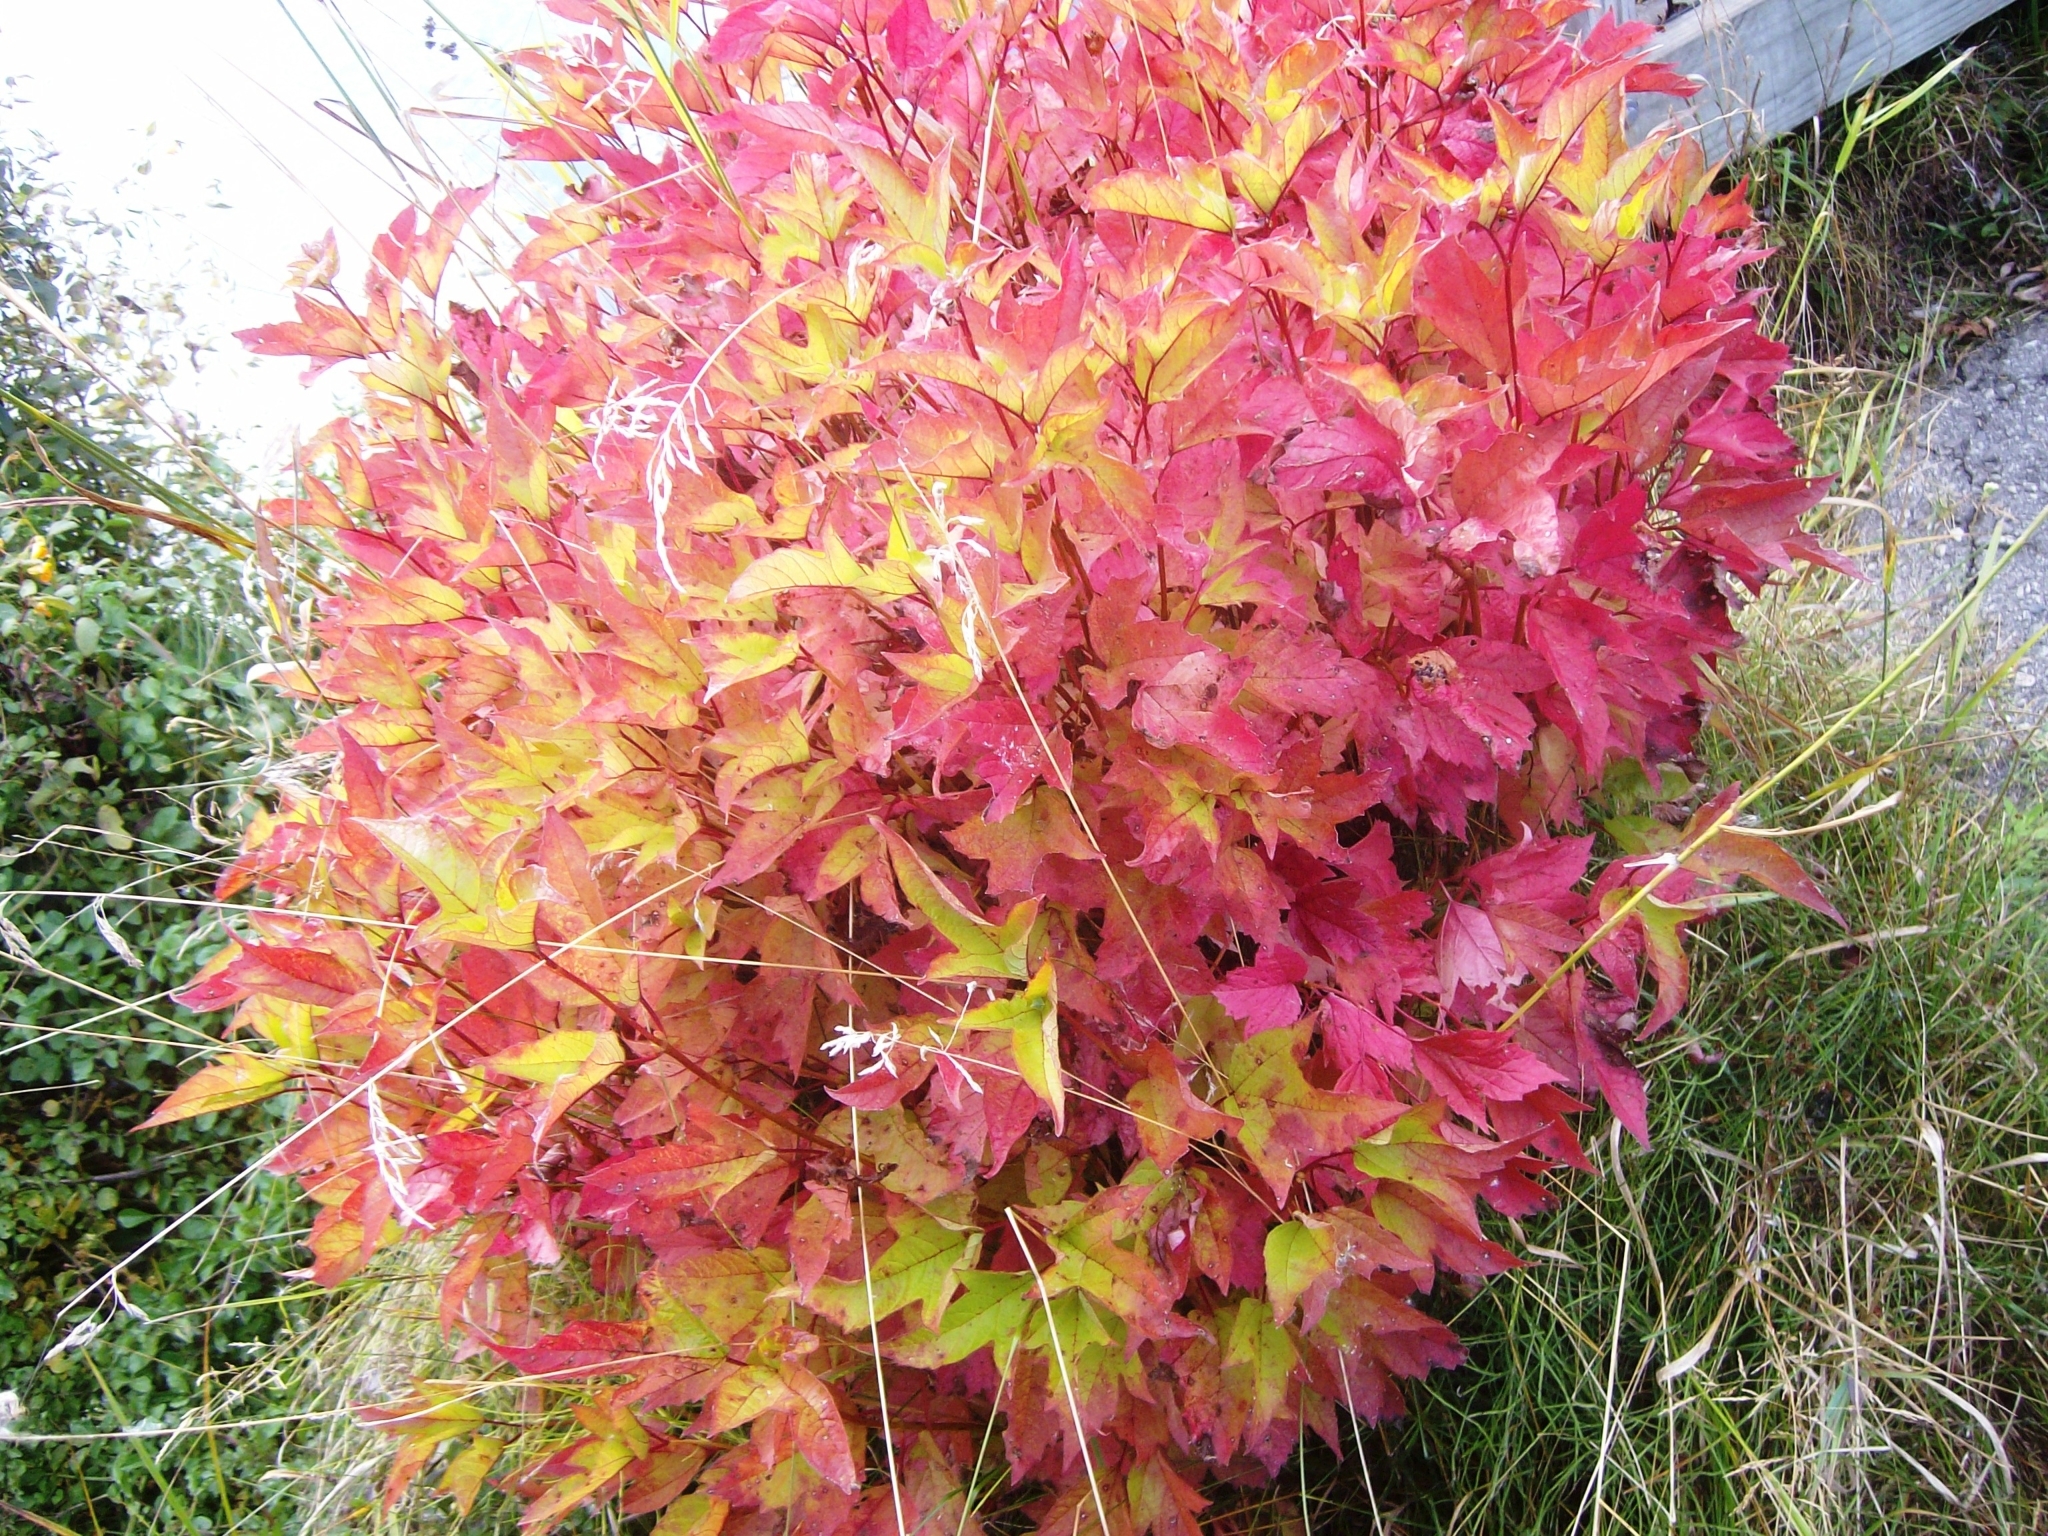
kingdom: Plantae
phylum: Tracheophyta
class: Magnoliopsida
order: Dipsacales
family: Viburnaceae
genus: Viburnum
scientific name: Viburnum opulus
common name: Guelder-rose
